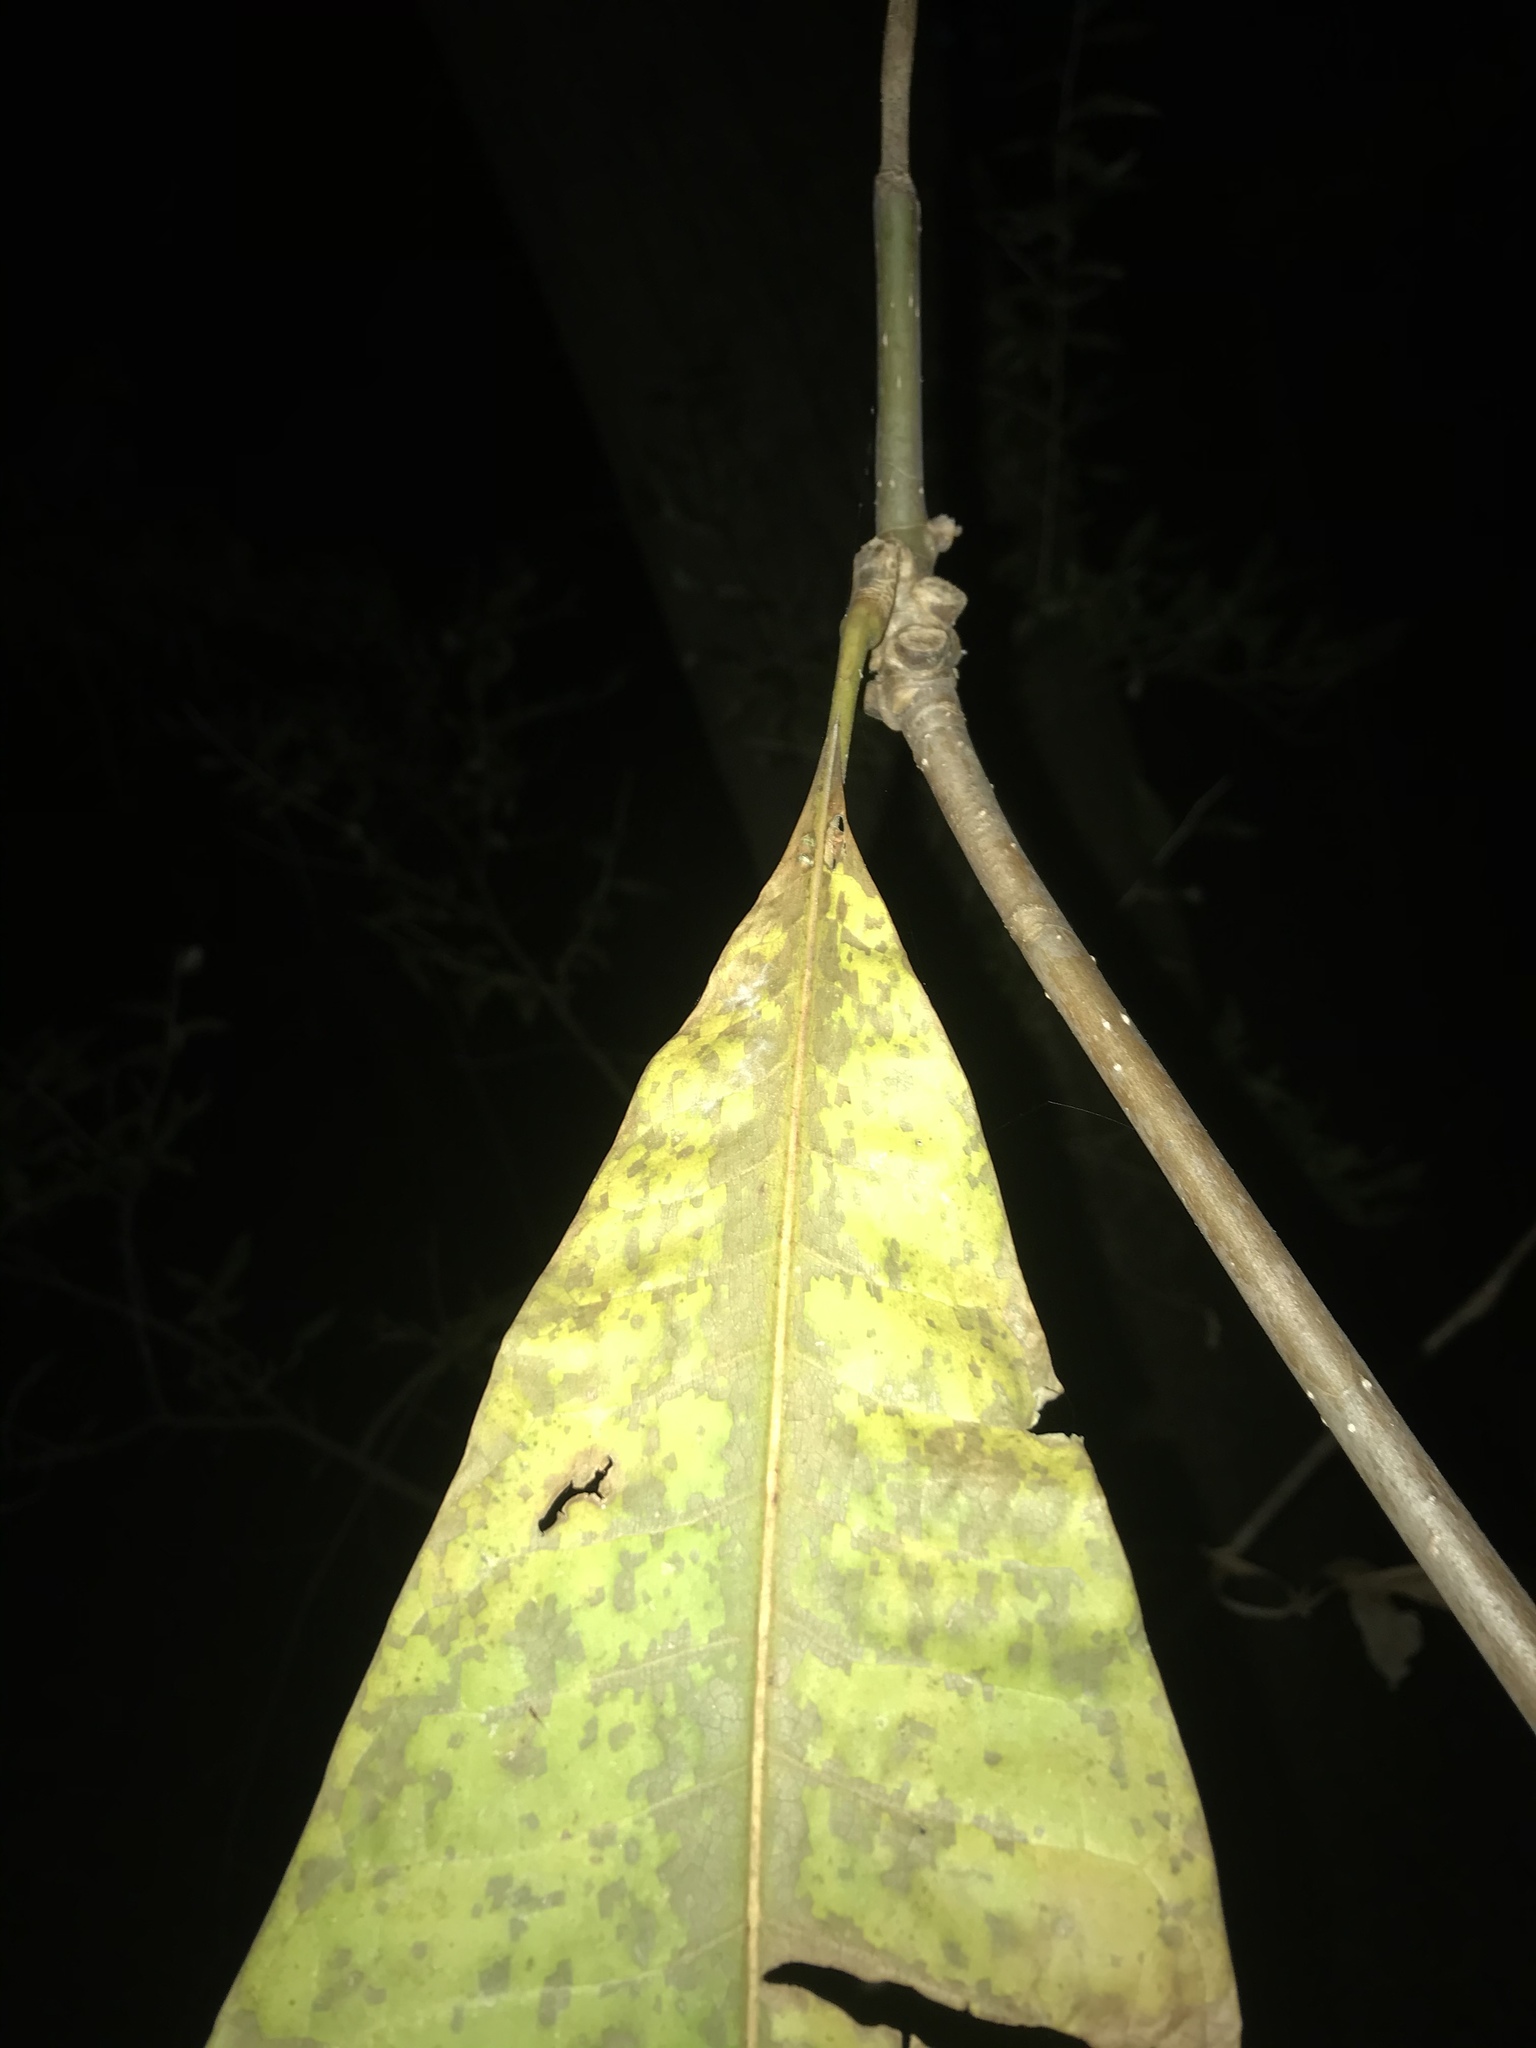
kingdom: Plantae
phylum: Tracheophyta
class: Magnoliopsida
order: Magnoliales
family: Magnoliaceae
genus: Magnolia
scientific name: Magnolia tripetala
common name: Umbrella magnolia
